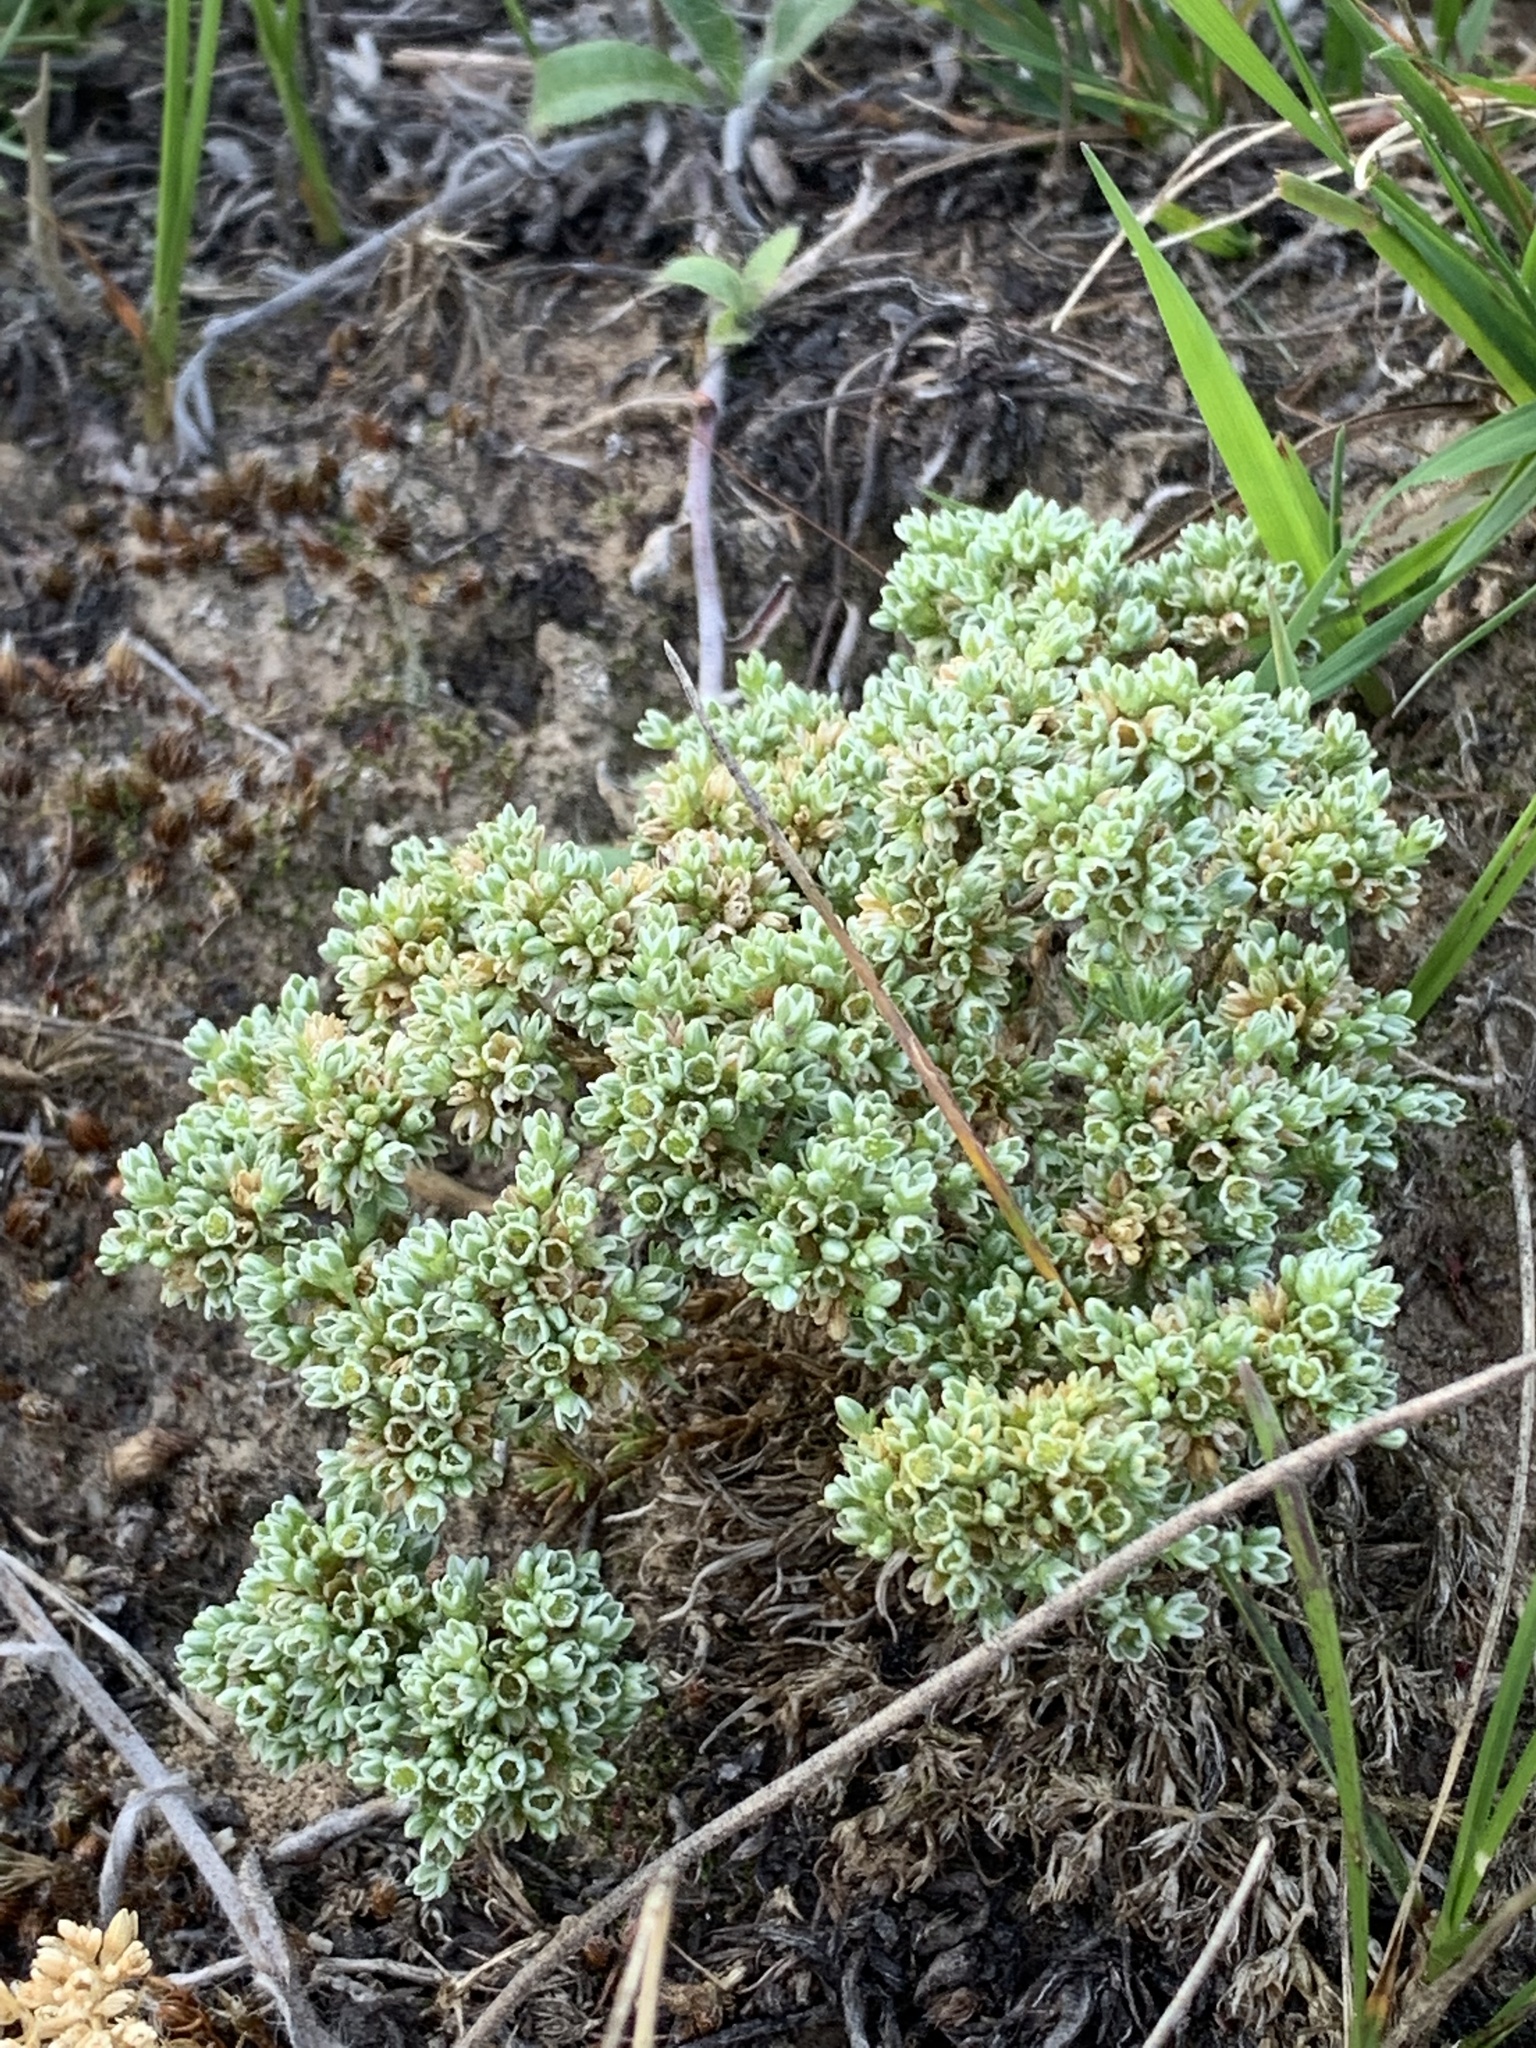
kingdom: Plantae
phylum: Tracheophyta
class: Magnoliopsida
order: Caryophyllales
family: Caryophyllaceae
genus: Scleranthus
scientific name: Scleranthus perennis
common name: Perennial knawel
